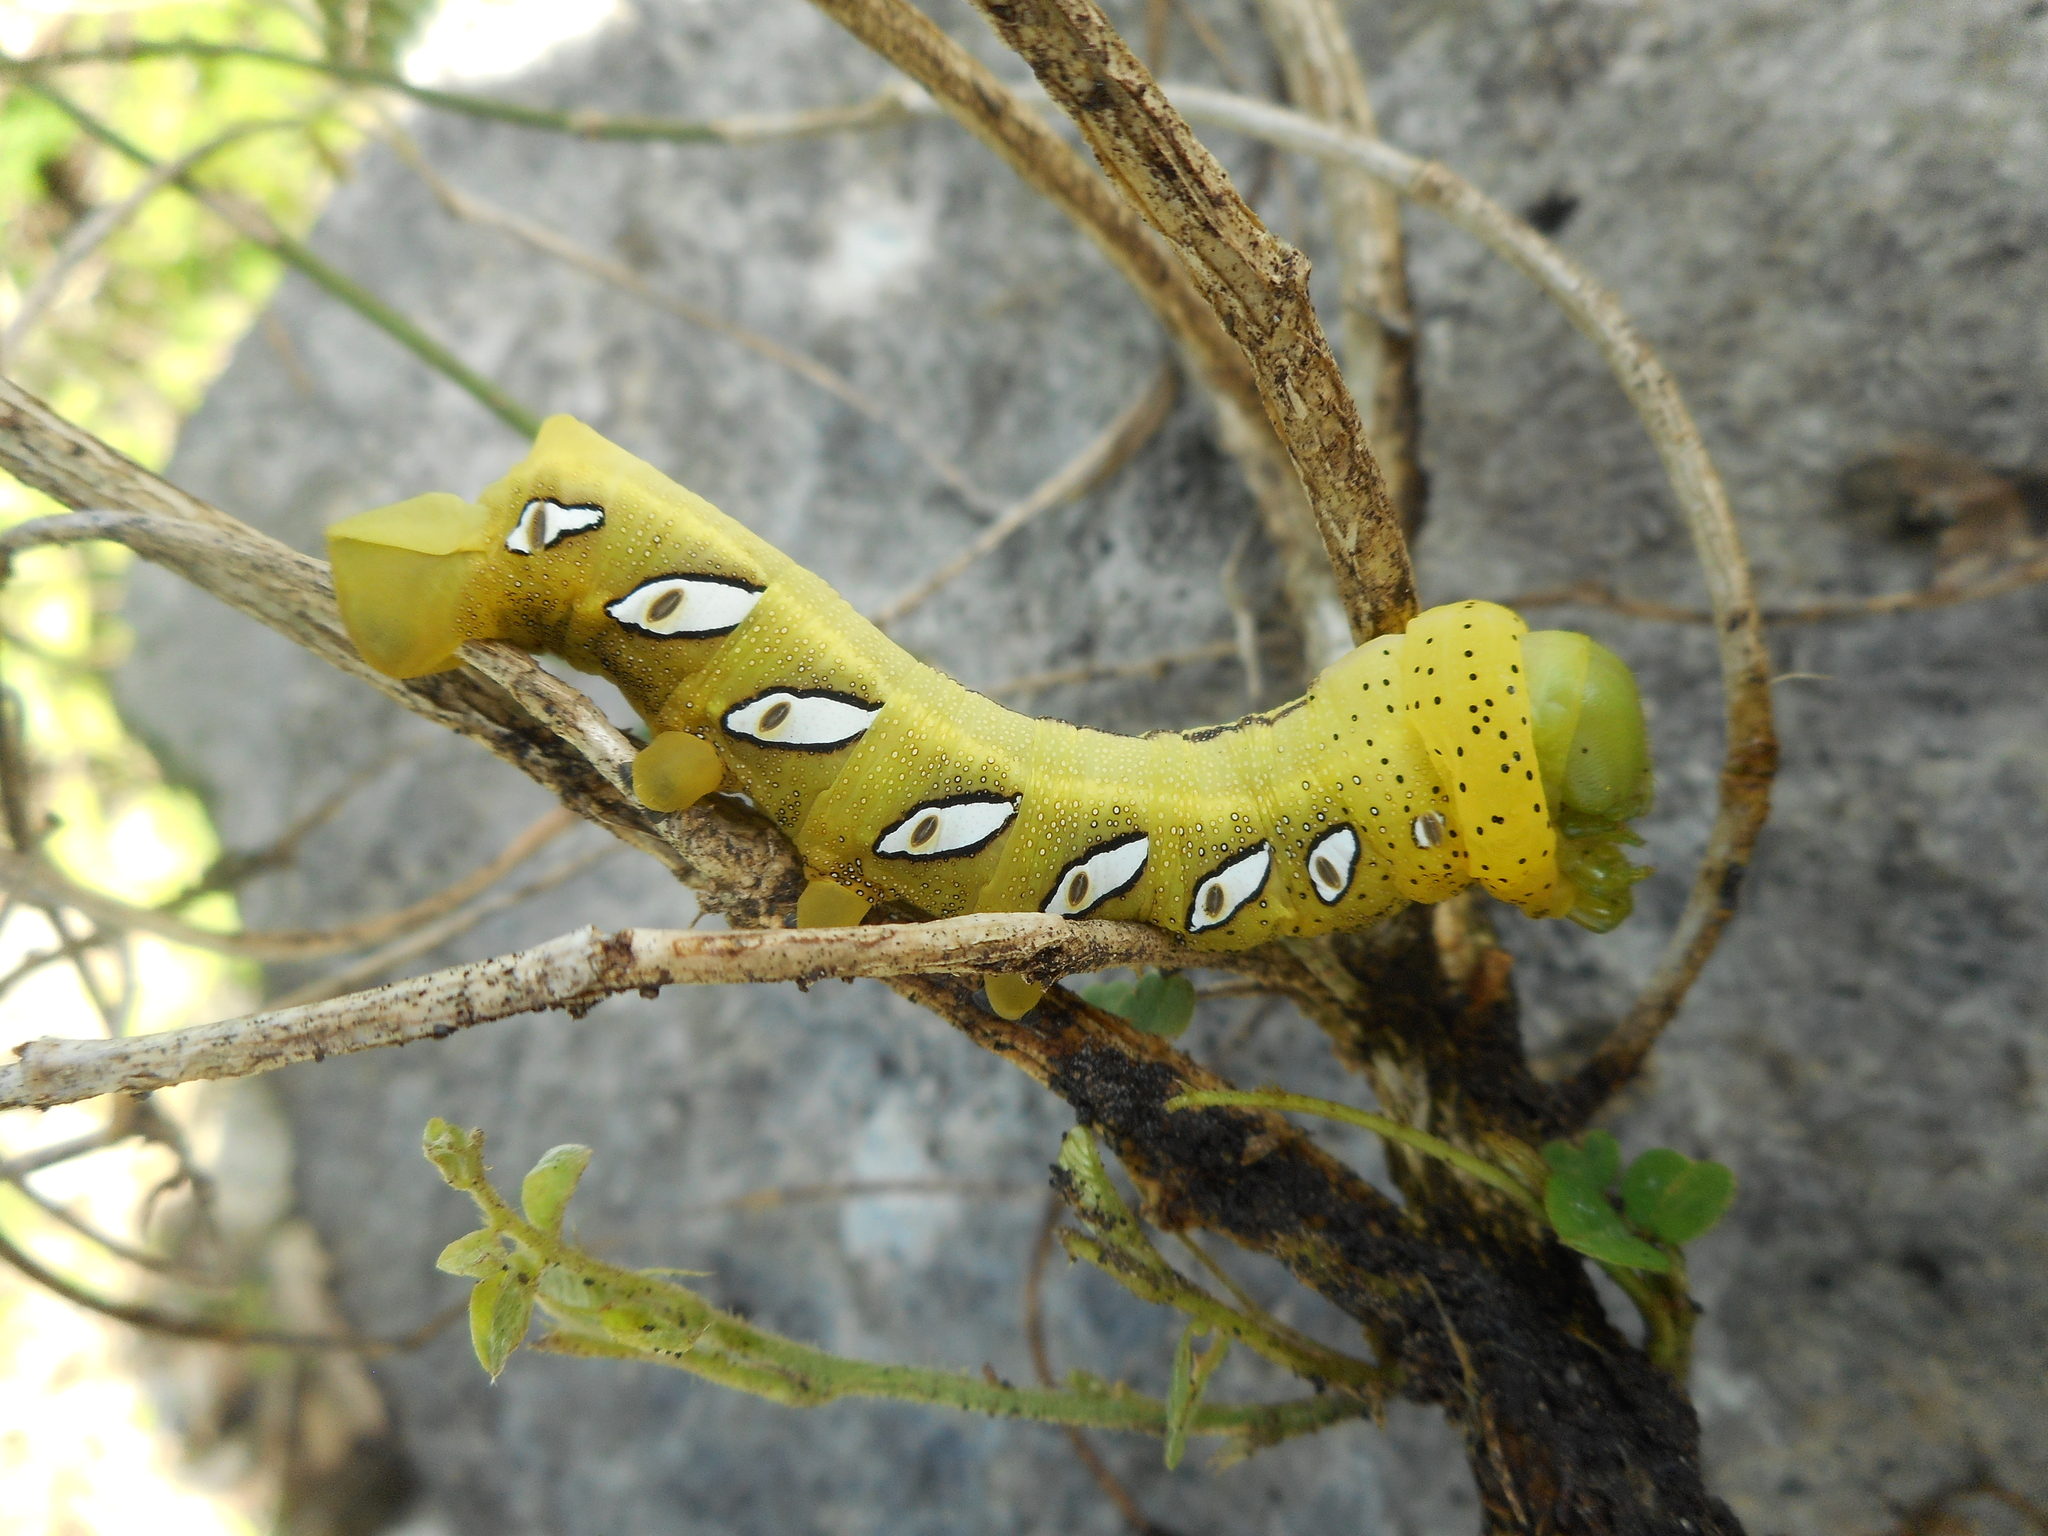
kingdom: Animalia
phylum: Arthropoda
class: Insecta
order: Lepidoptera
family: Sphingidae
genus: Eumorpha
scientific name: Eumorpha vitis
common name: Vine sphinx
